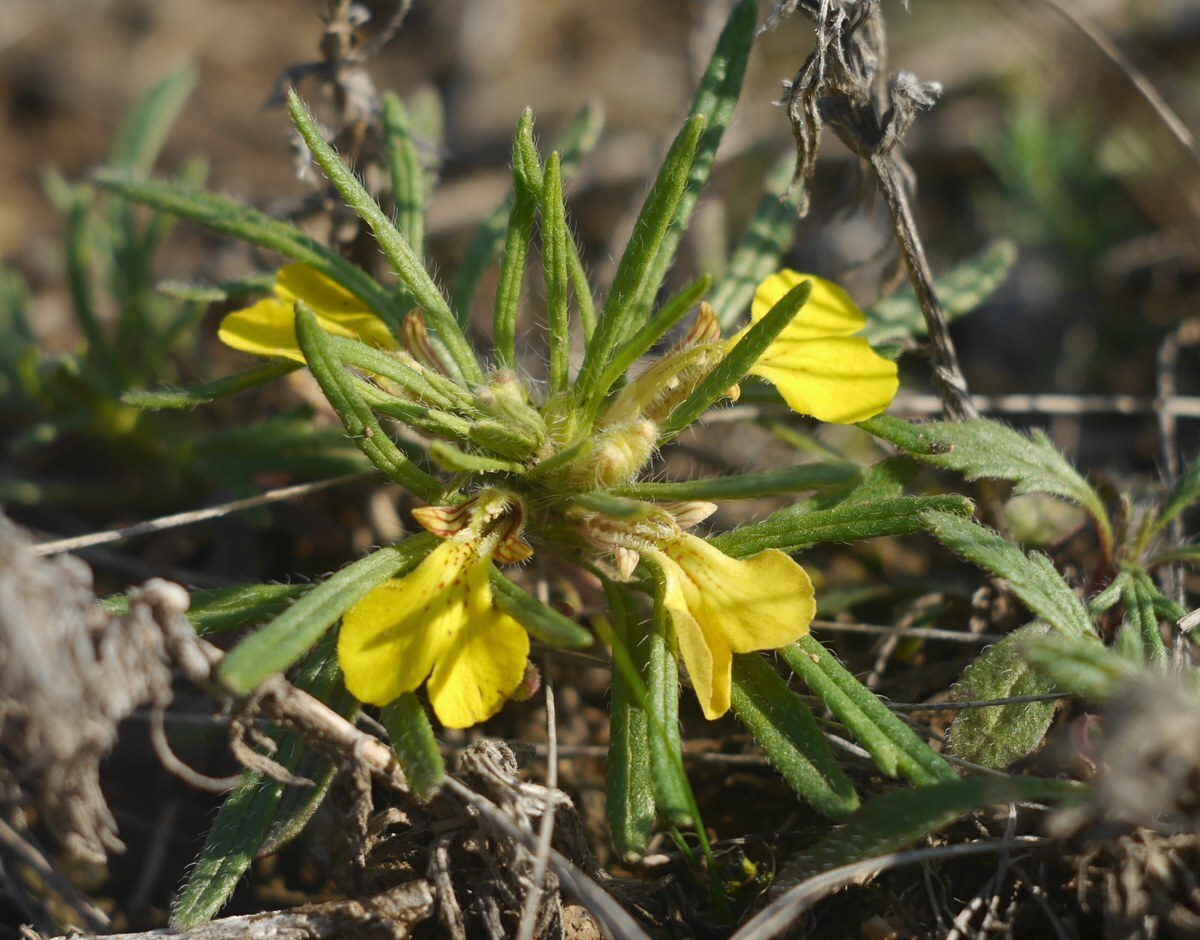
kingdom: Plantae
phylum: Tracheophyta
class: Magnoliopsida
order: Lamiales
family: Lamiaceae
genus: Ajuga
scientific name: Ajuga chamaepitys
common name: Ground-pine
